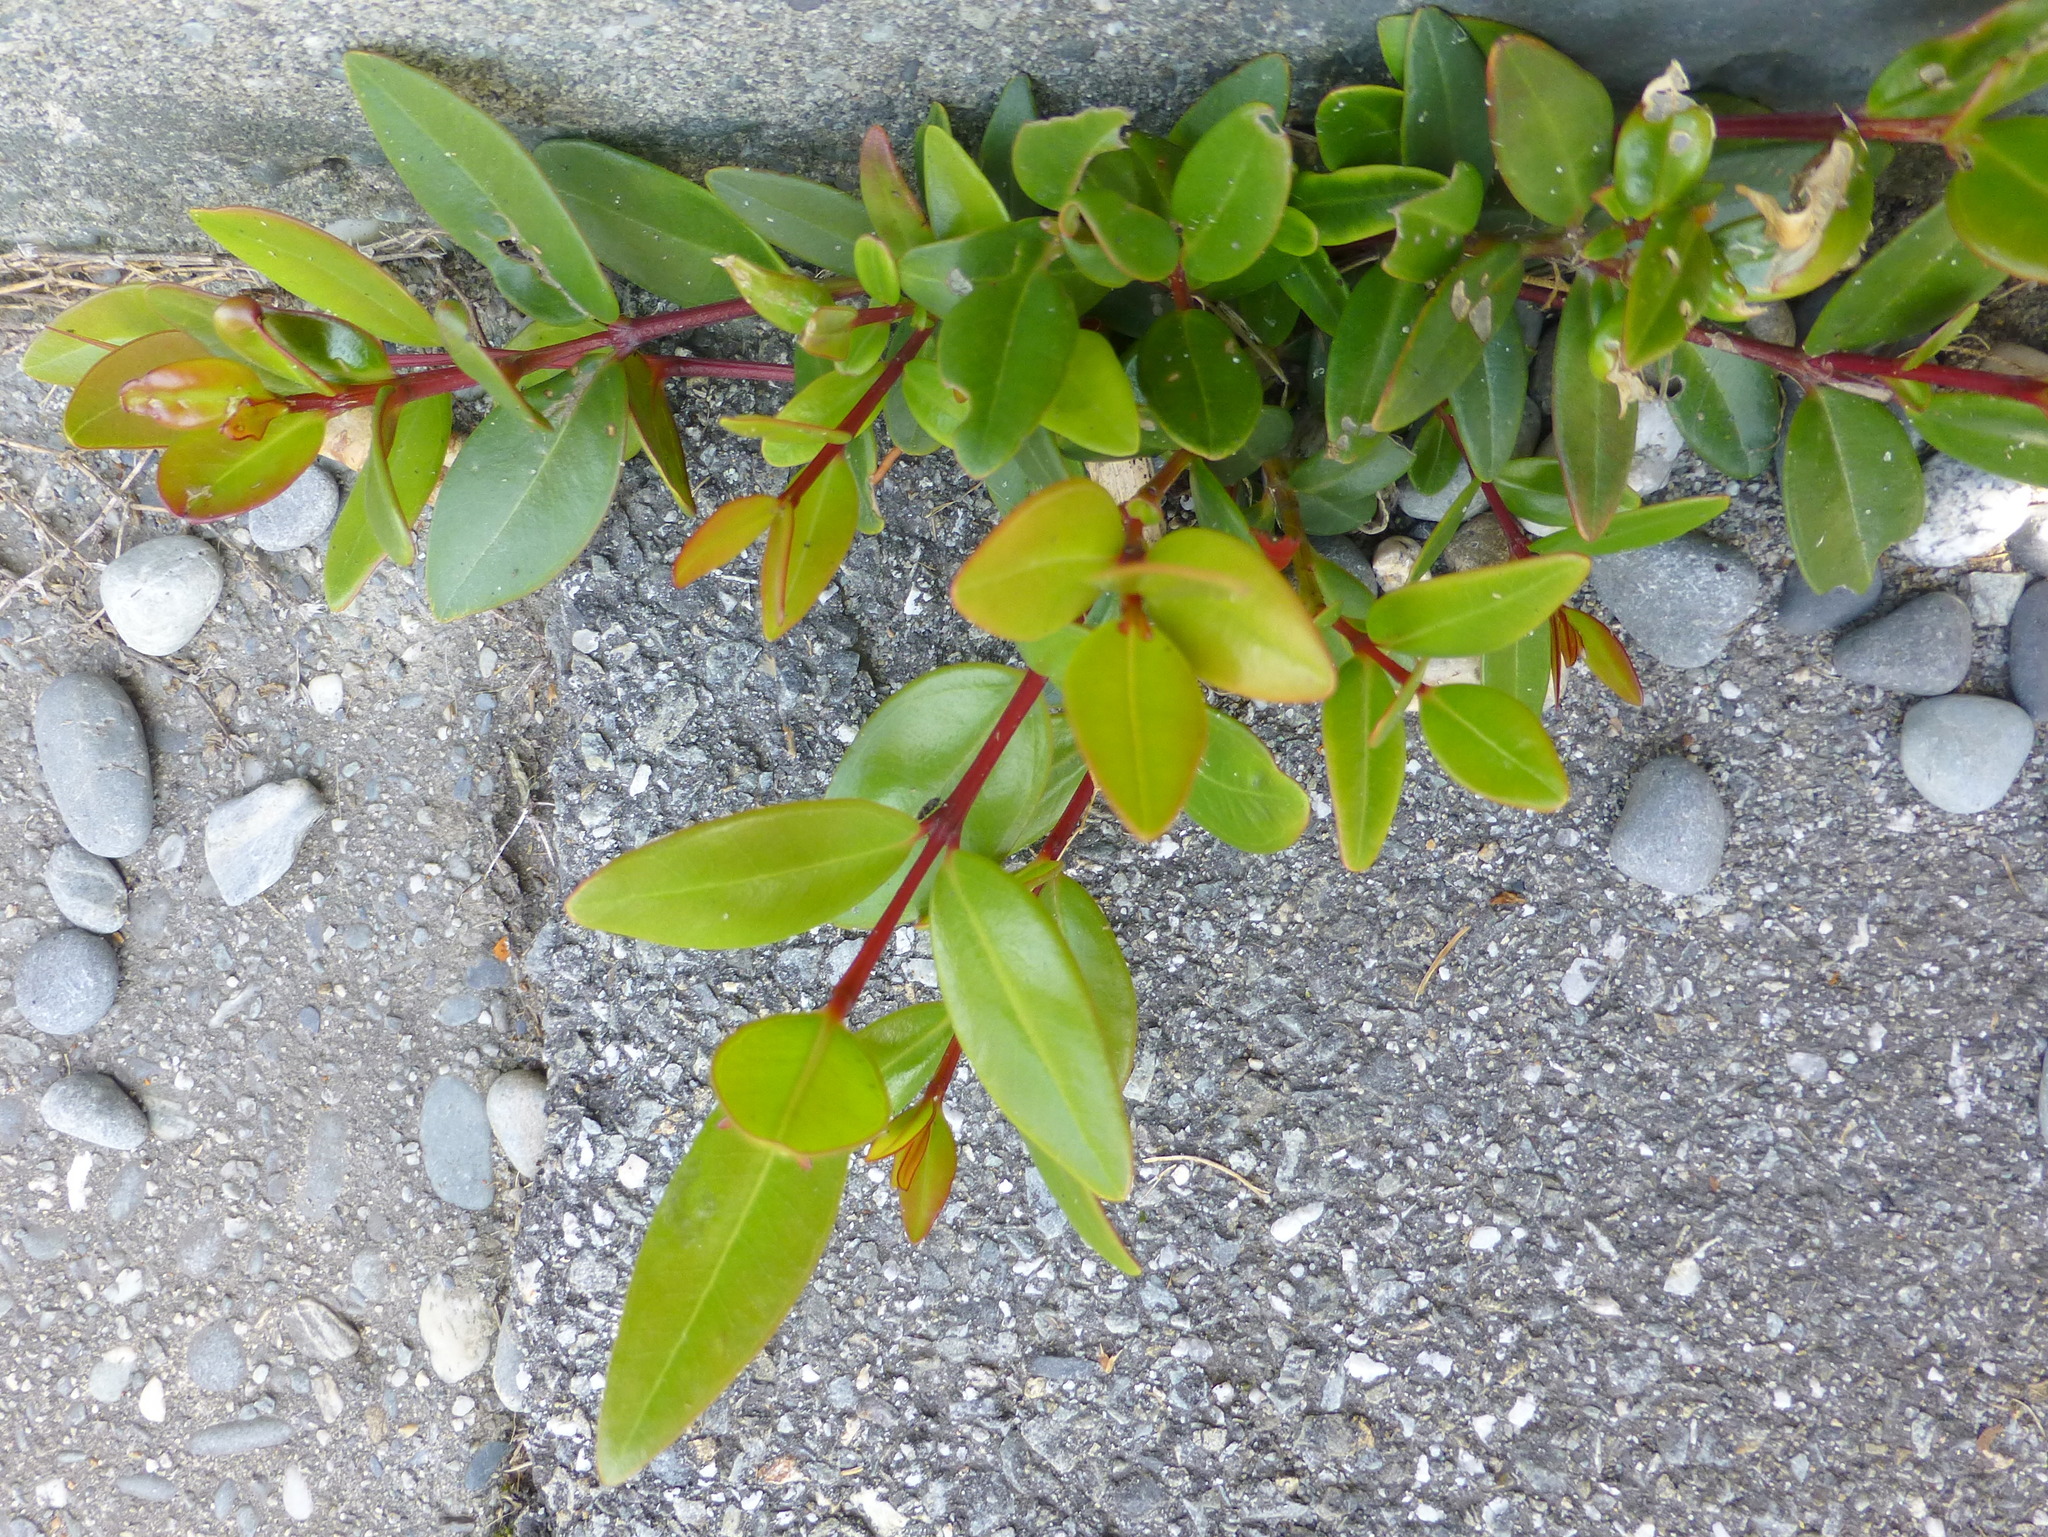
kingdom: Plantae
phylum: Tracheophyta
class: Magnoliopsida
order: Myrtales
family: Myrtaceae
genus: Metrosideros
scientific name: Metrosideros excelsa
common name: New zealand christmastree
